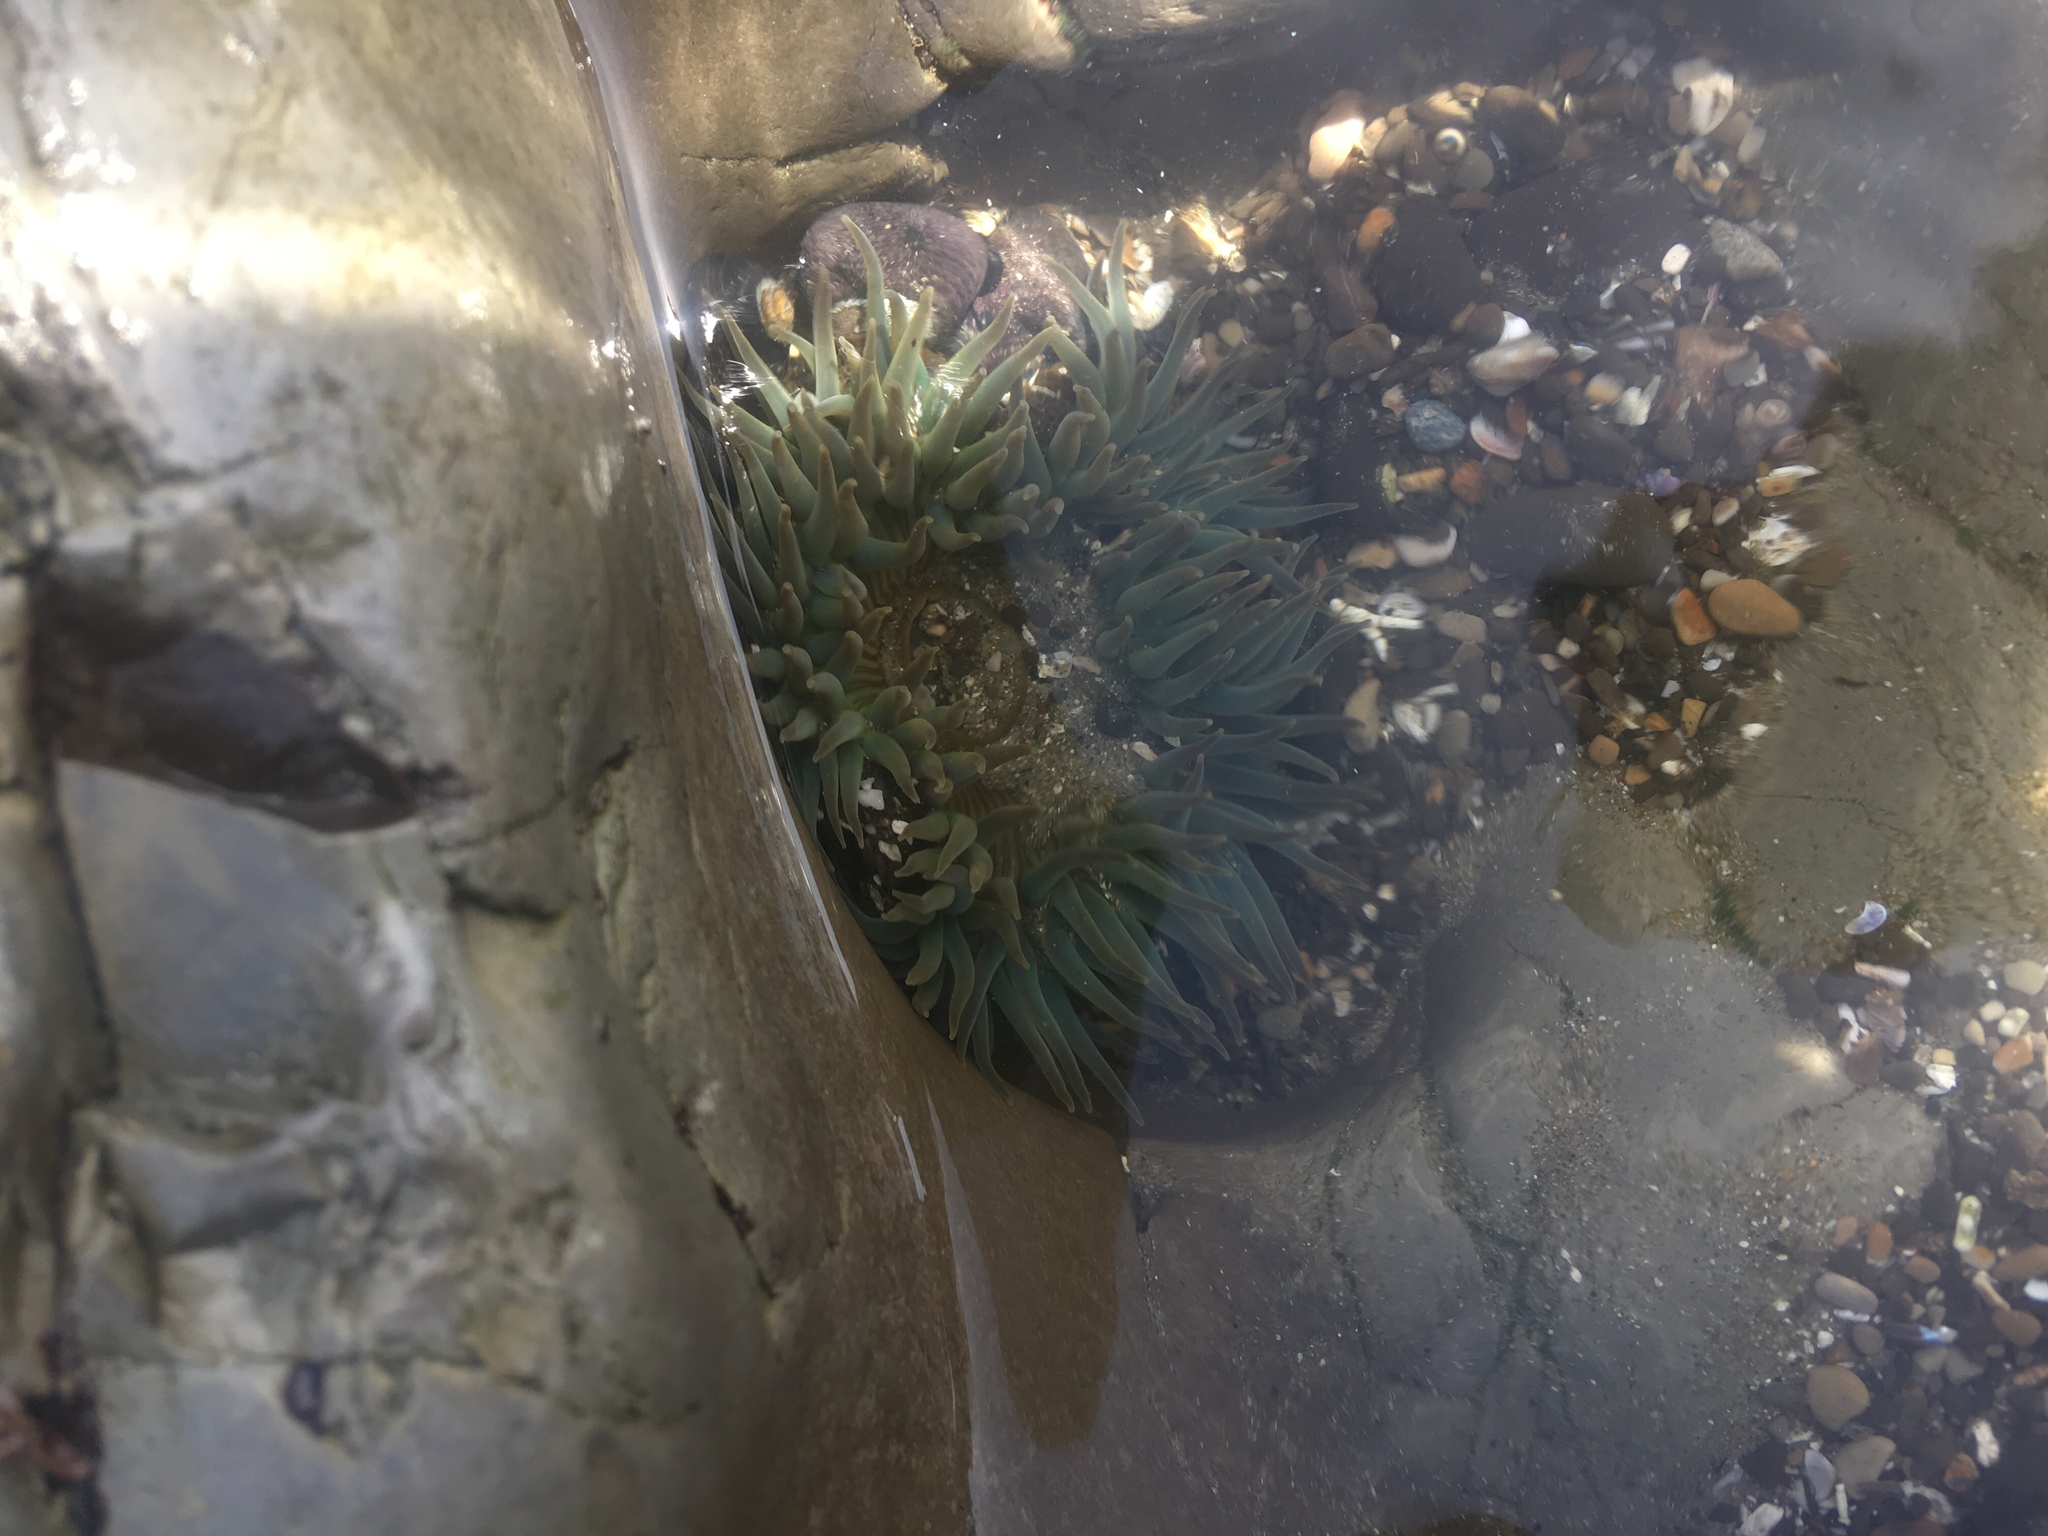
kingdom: Animalia
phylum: Cnidaria
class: Anthozoa
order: Actiniaria
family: Actiniidae
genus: Anthopleura
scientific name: Anthopleura sola
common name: Sun anemone
